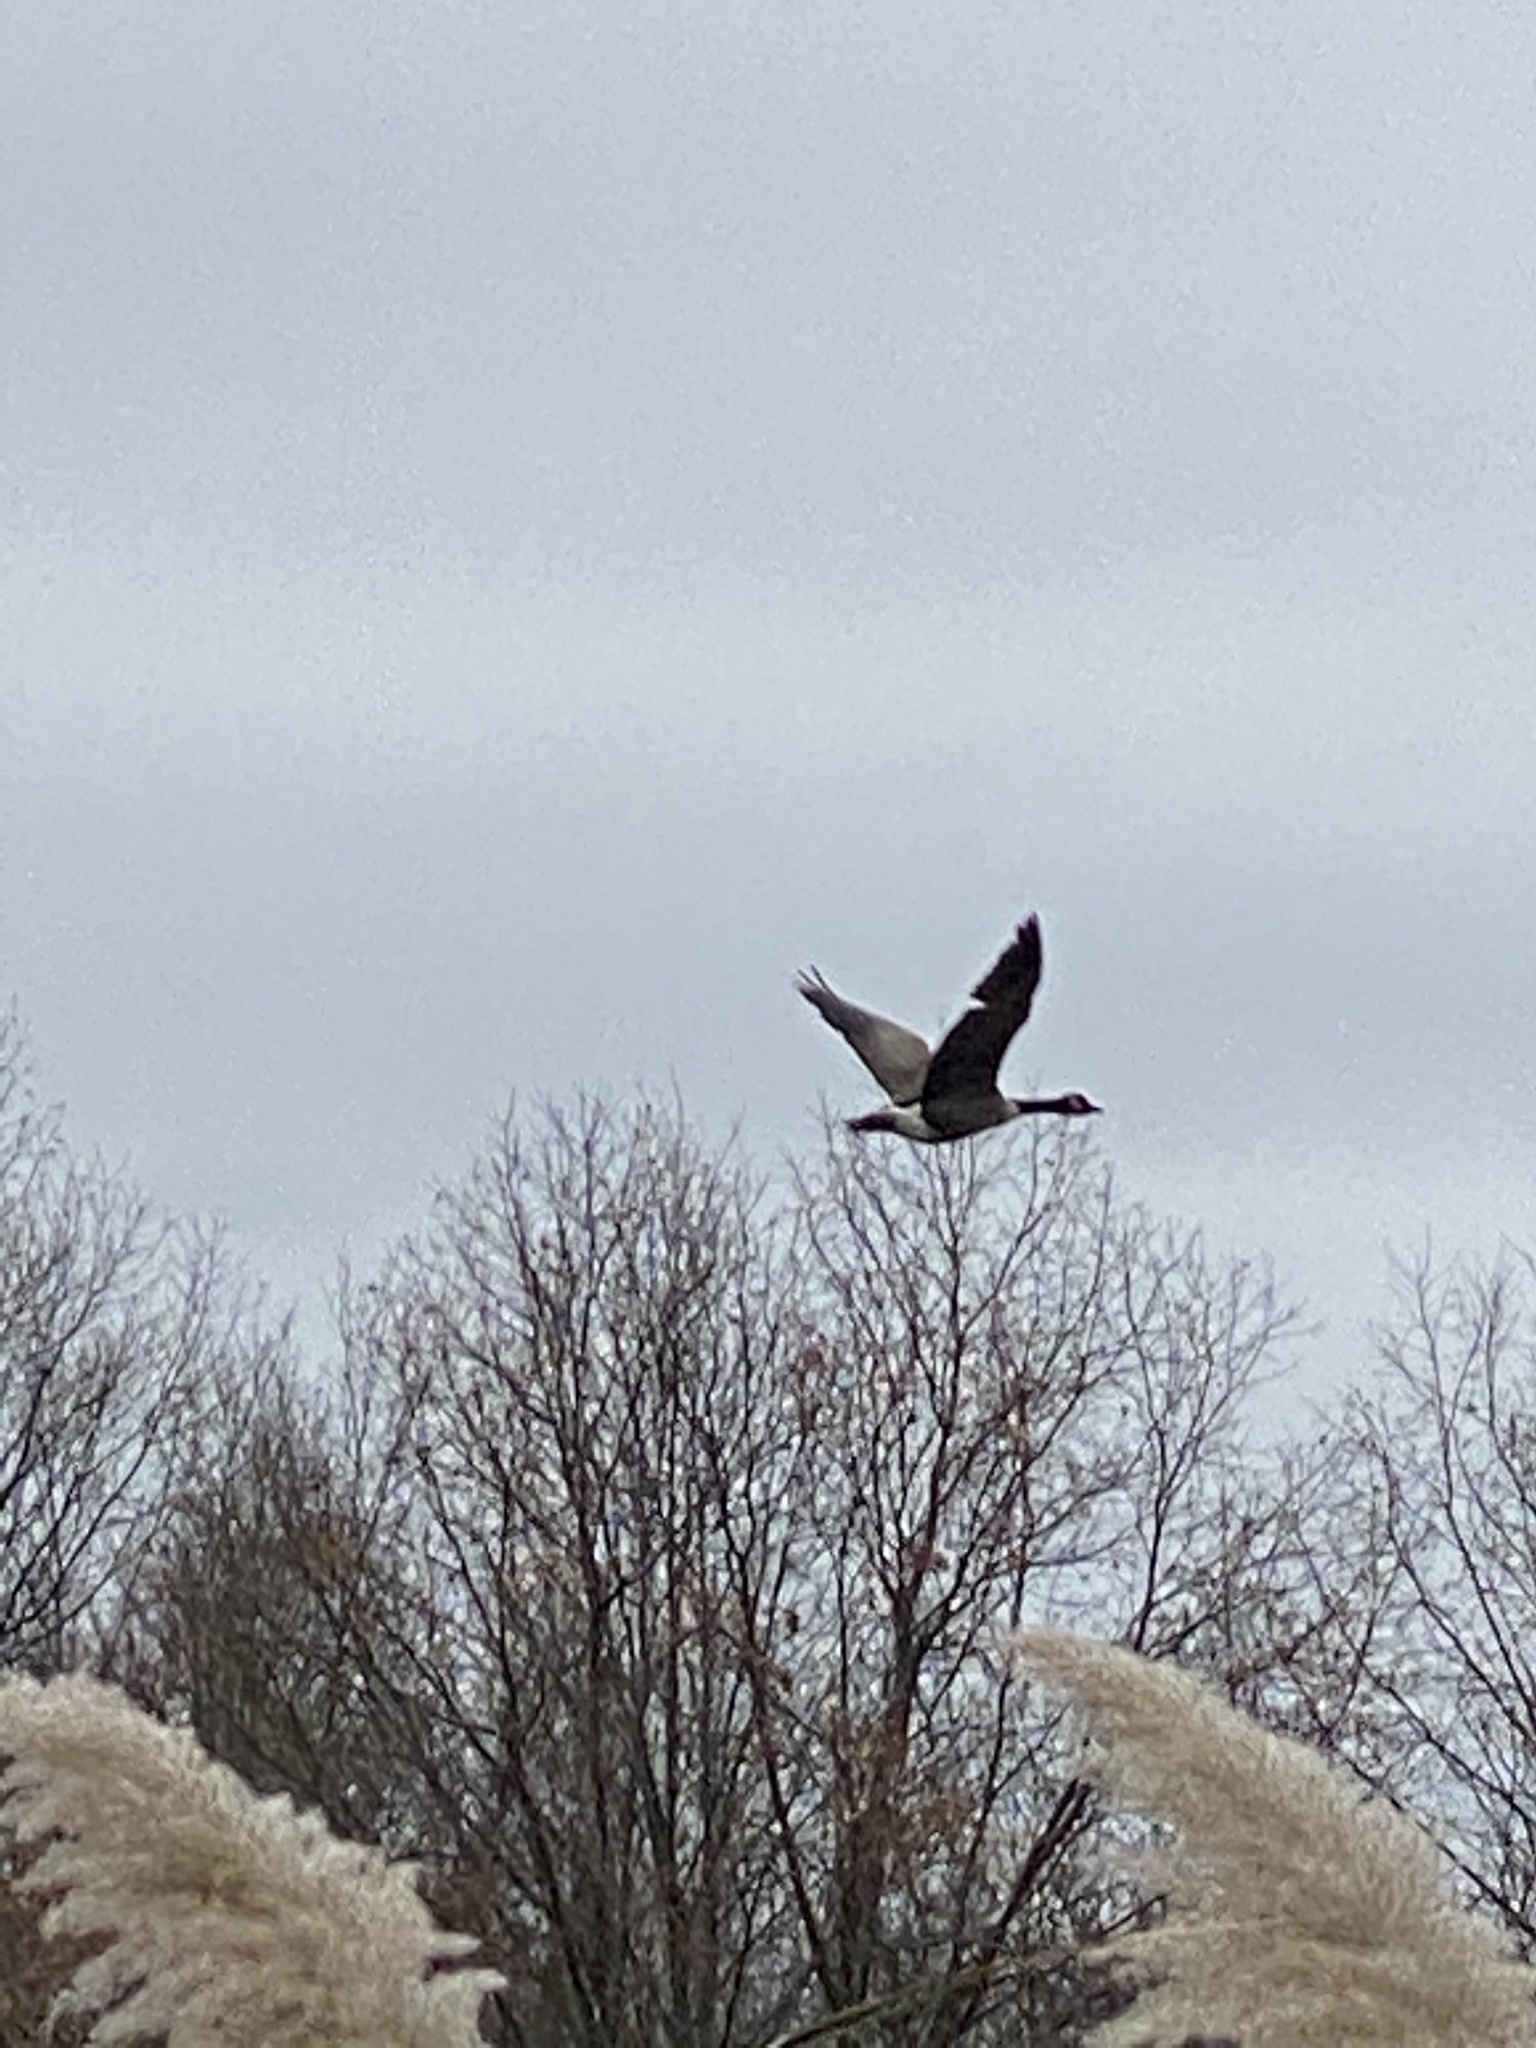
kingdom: Animalia
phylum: Chordata
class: Aves
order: Anseriformes
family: Anatidae
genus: Branta
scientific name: Branta canadensis
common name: Canada goose
